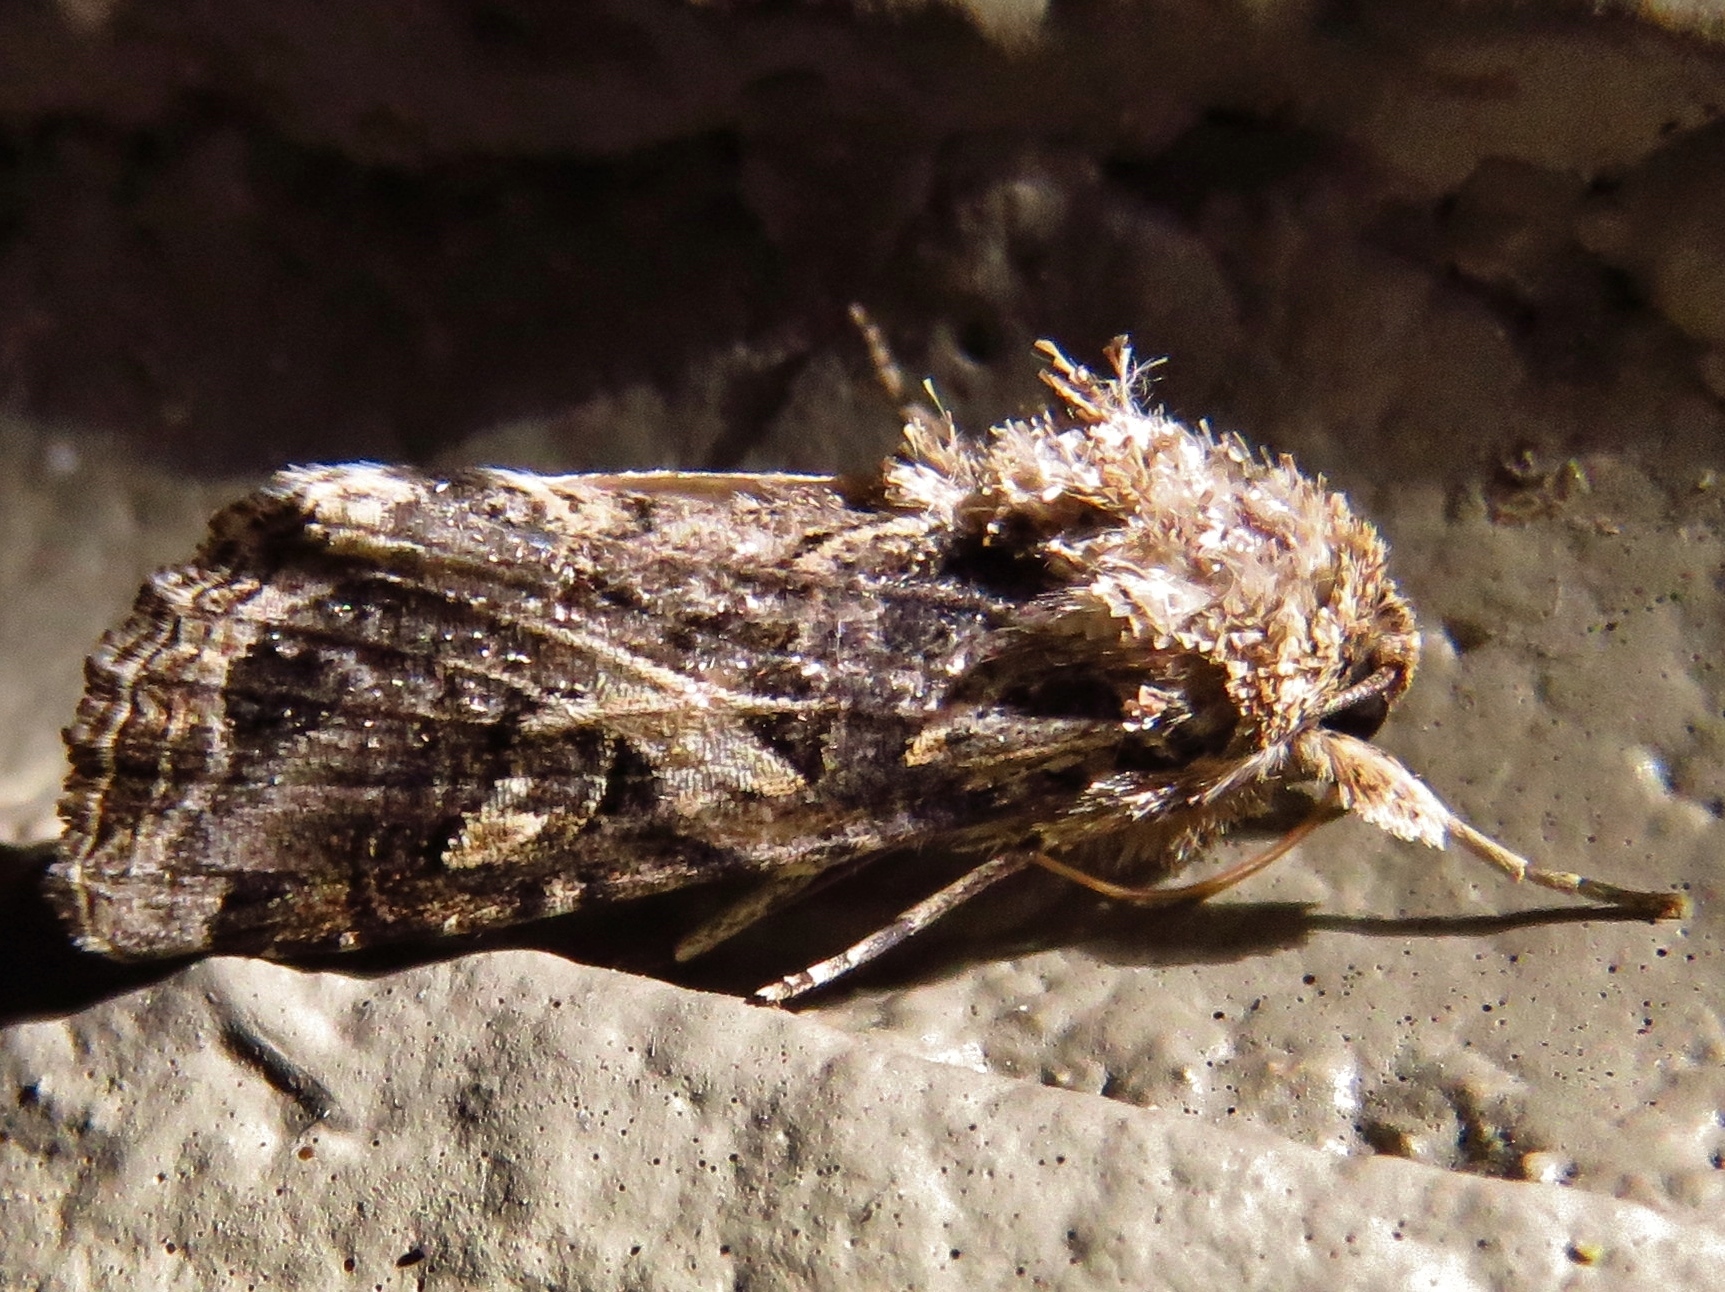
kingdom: Animalia
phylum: Arthropoda
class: Insecta
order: Lepidoptera
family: Noctuidae
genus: Spodoptera
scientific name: Spodoptera ornithogalli
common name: Yellow-striped armyworm
